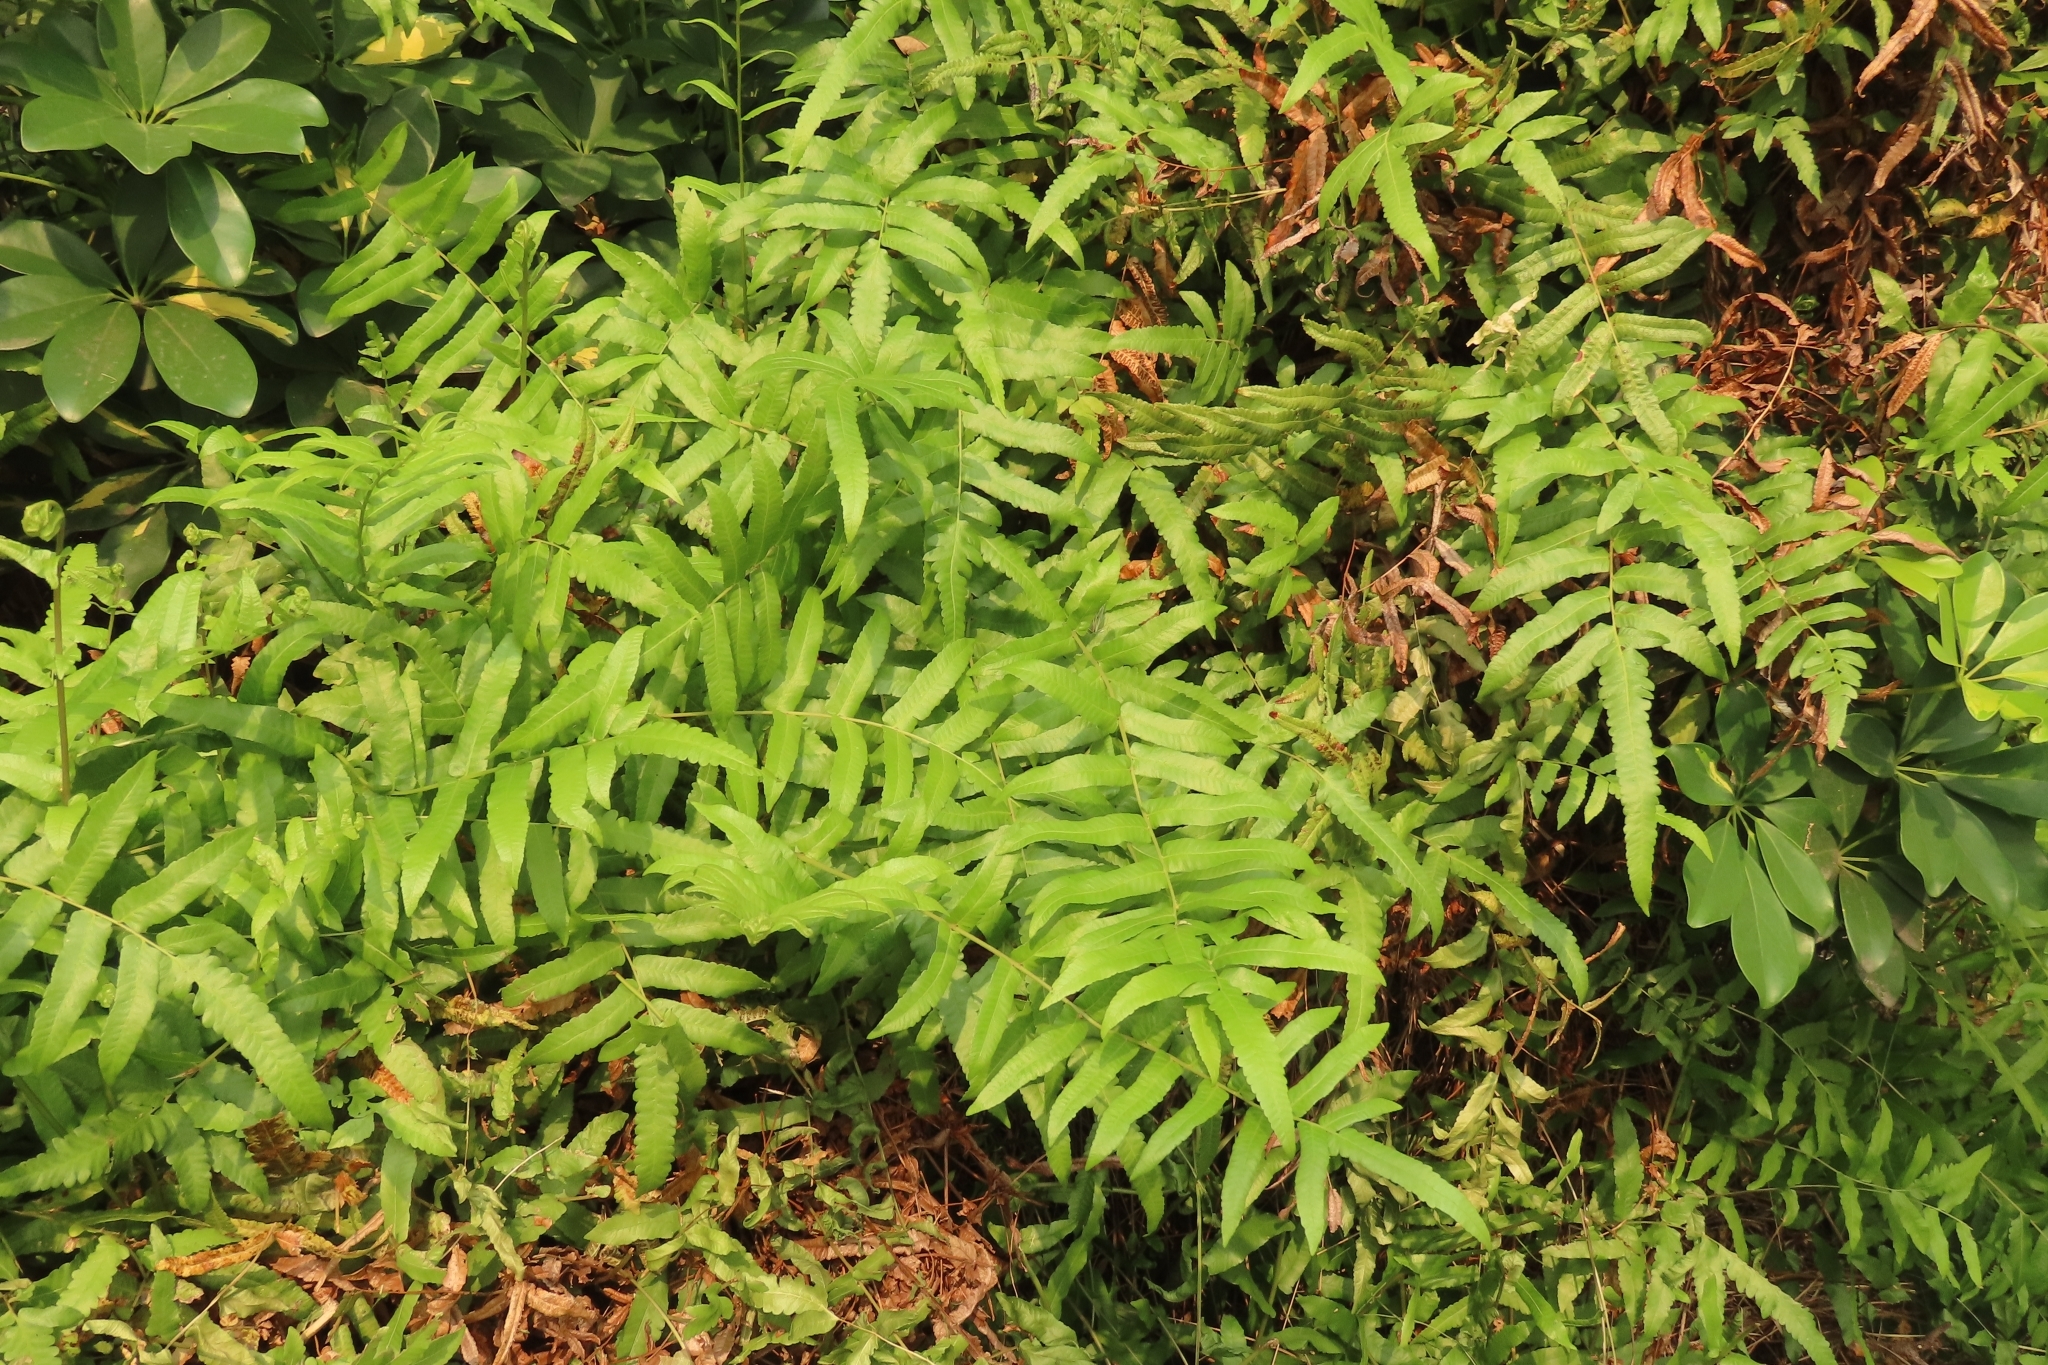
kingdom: Plantae
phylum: Tracheophyta
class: Polypodiopsida
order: Polypodiales
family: Thelypteridaceae
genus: Ampelopteris
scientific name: Ampelopteris prolifera
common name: Riverine scrambler
